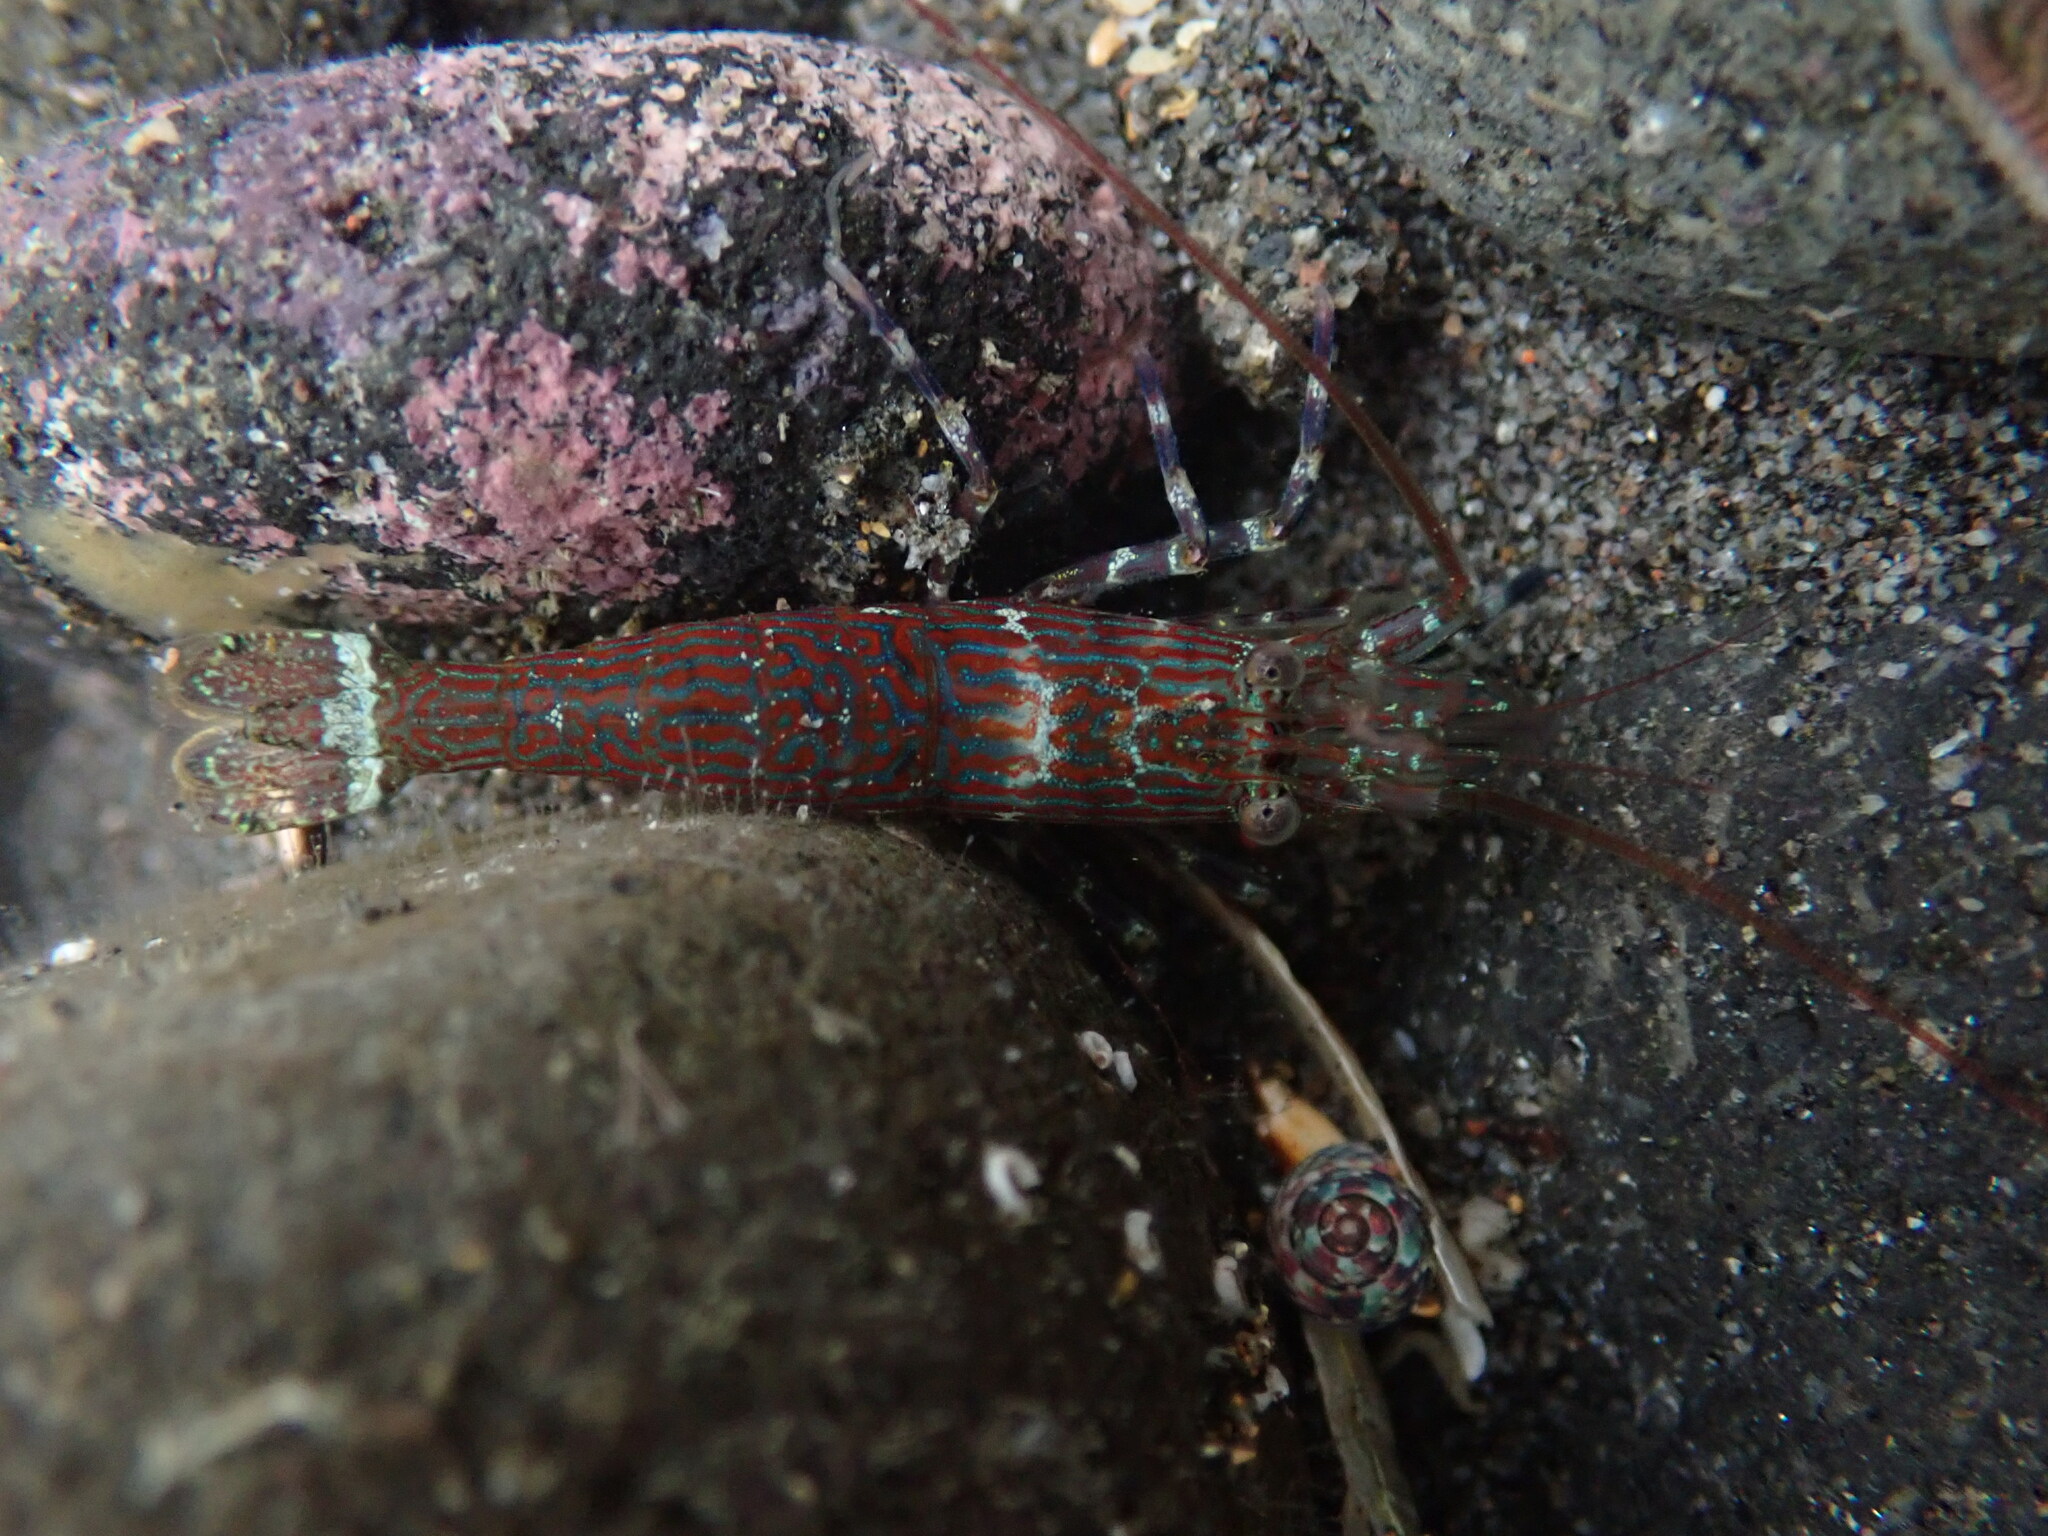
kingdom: Animalia
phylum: Arthropoda
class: Malacostraca
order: Decapoda
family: Hippolytidae
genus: Alope
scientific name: Alope spinifrons
